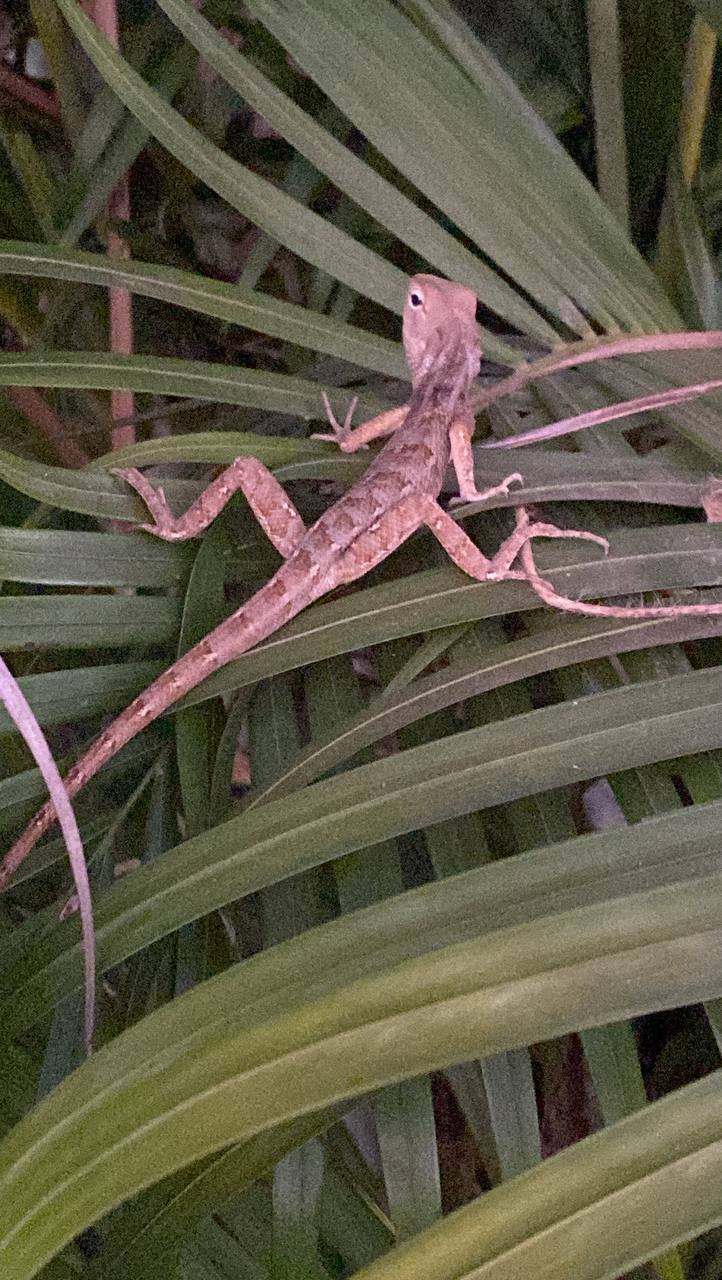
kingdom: Animalia
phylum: Chordata
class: Squamata
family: Agamidae
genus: Calotes
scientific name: Calotes versicolor
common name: Oriental garden lizard
